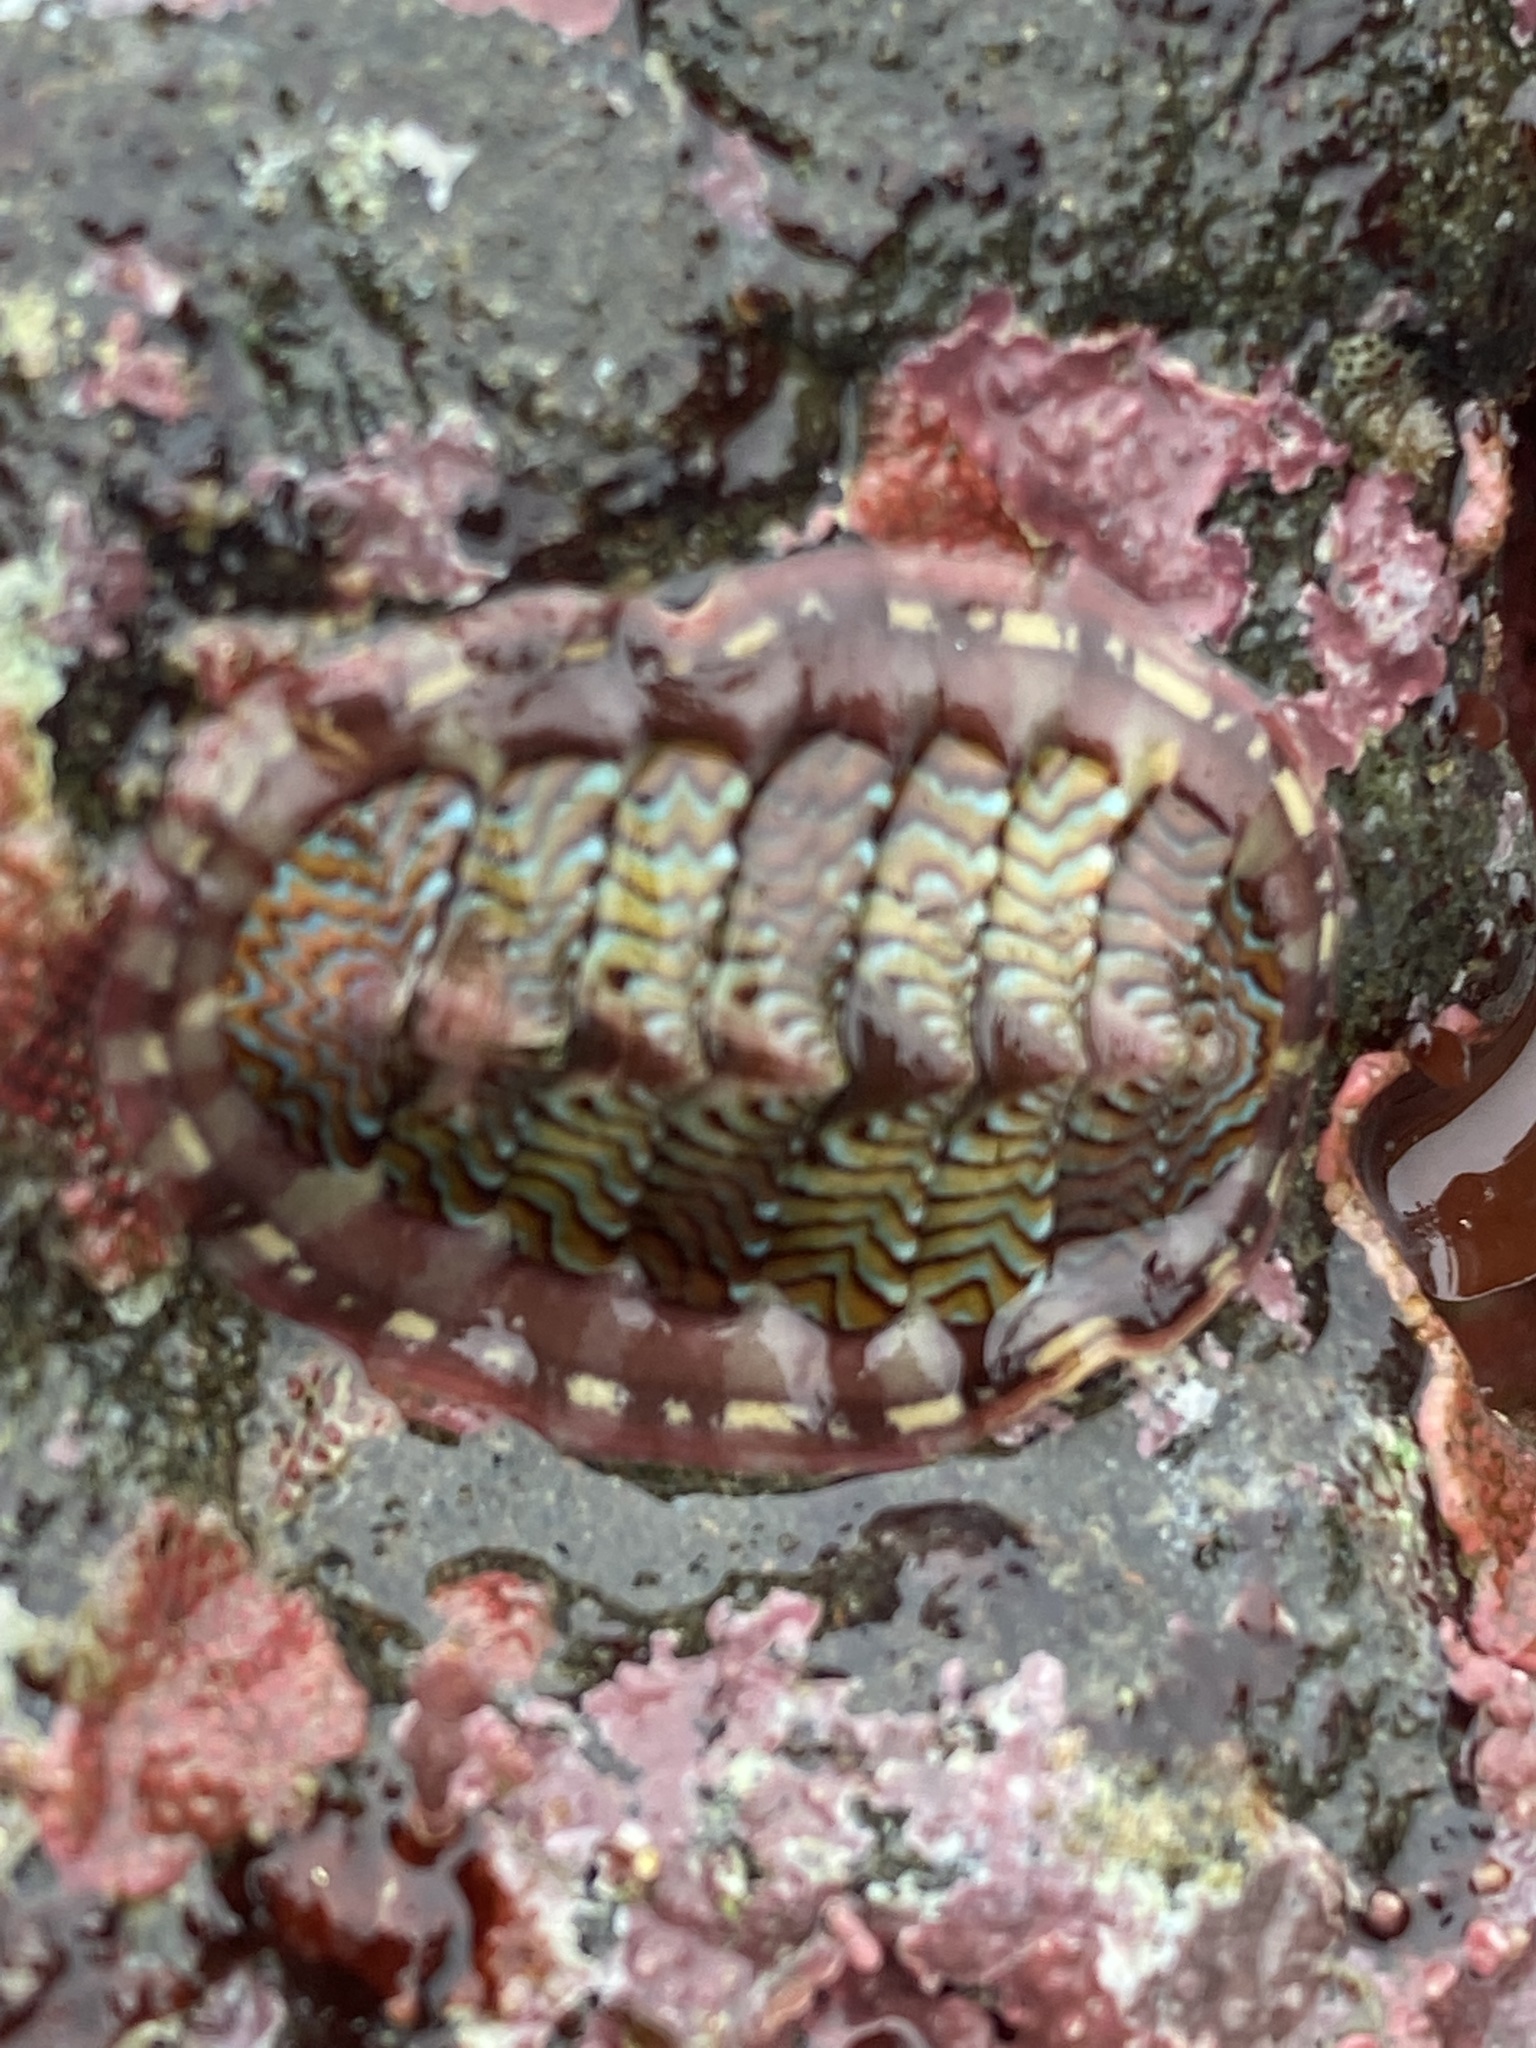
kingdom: Animalia
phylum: Mollusca
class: Polyplacophora
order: Chitonida
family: Tonicellidae
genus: Tonicella
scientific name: Tonicella lokii
